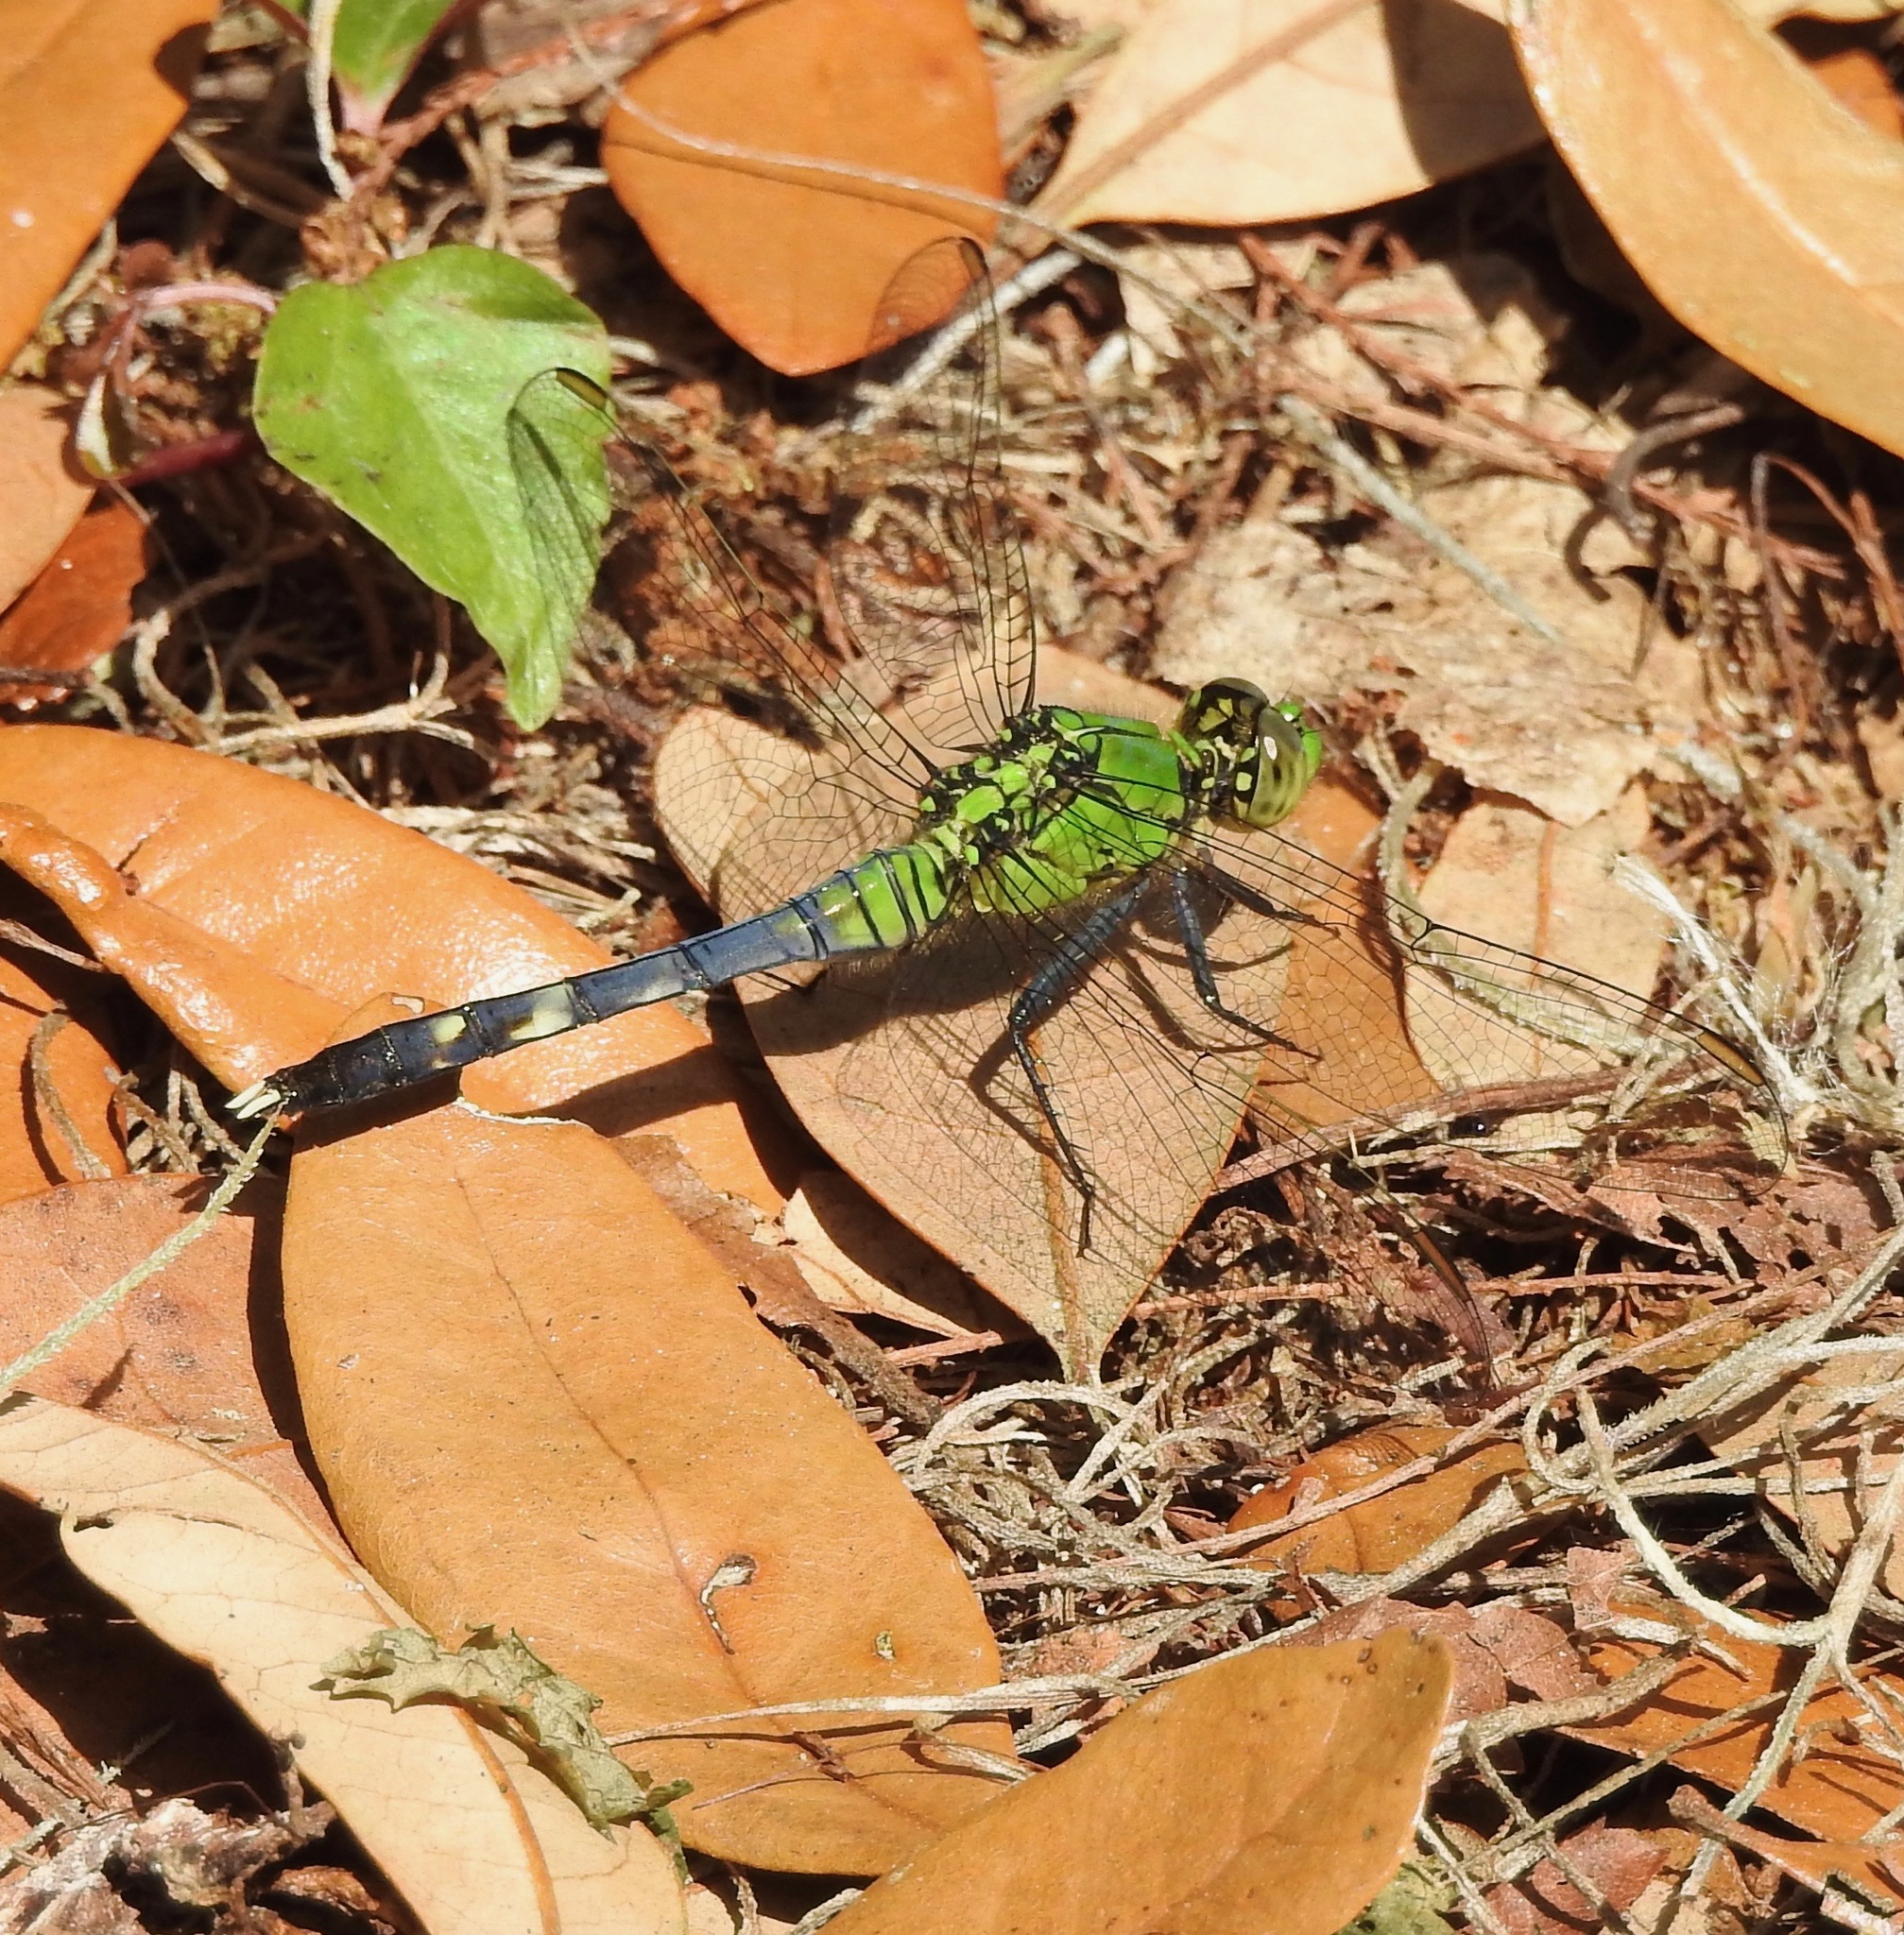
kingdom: Animalia
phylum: Arthropoda
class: Insecta
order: Odonata
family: Libellulidae
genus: Erythemis
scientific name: Erythemis simplicicollis
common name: Eastern pondhawk
